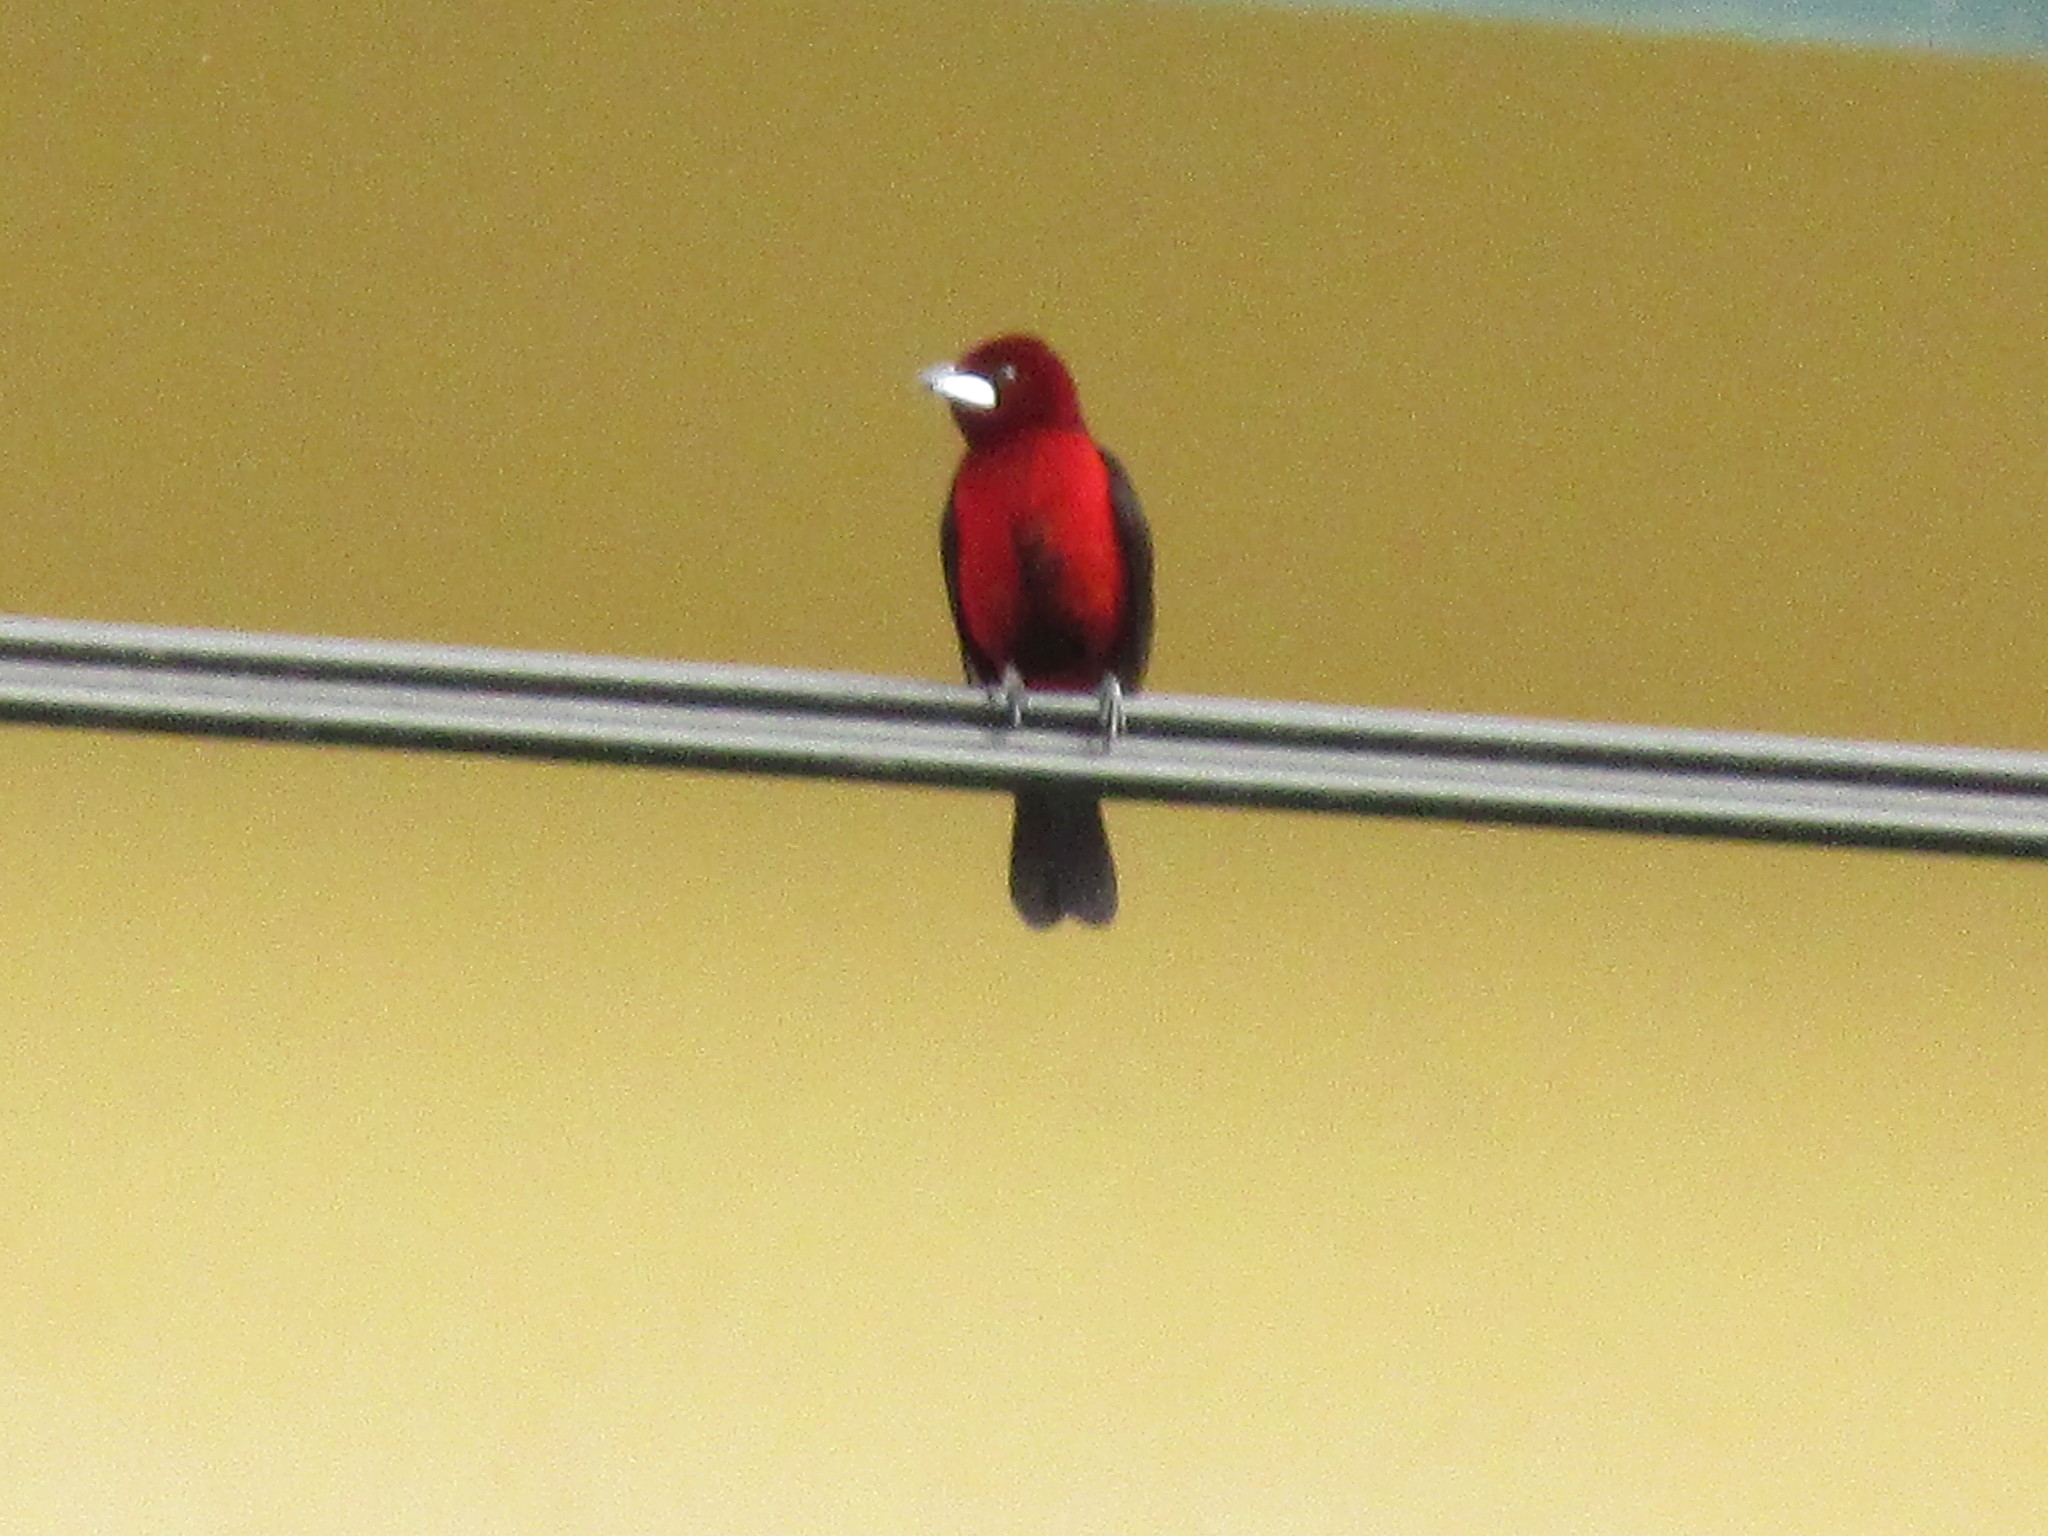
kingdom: Animalia
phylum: Chordata
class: Aves
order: Passeriformes
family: Thraupidae
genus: Ramphocelus
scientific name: Ramphocelus dimidiatus
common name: Crimson-backed tanager
